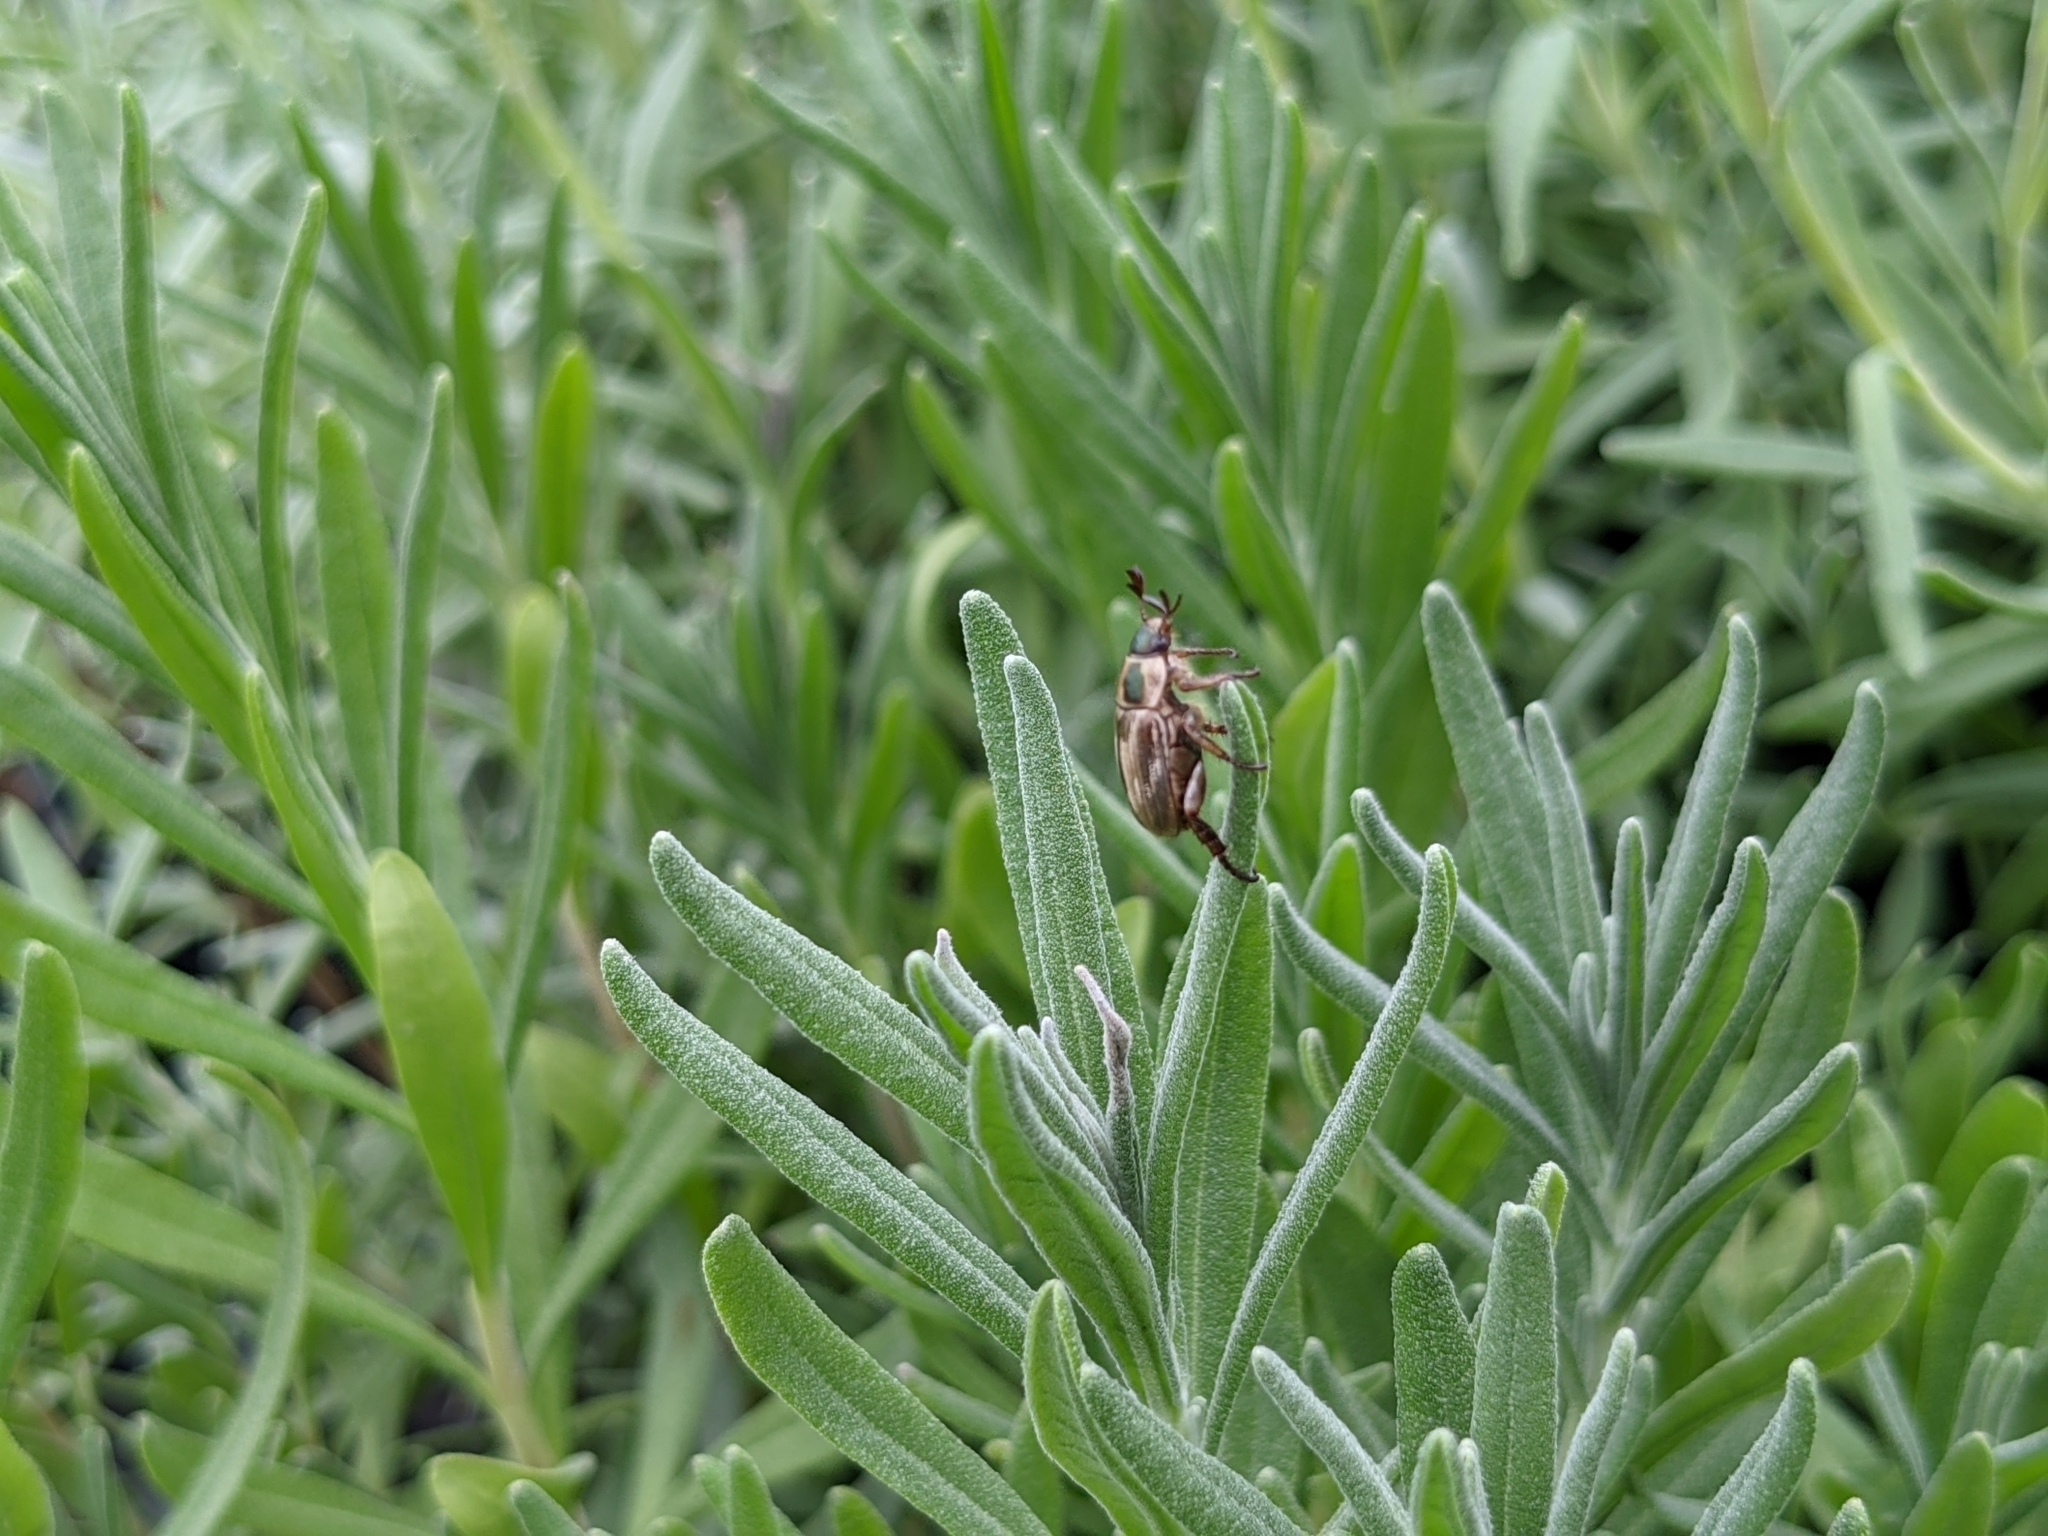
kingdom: Animalia
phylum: Arthropoda
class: Insecta
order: Coleoptera
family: Scarabaeidae
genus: Exomala
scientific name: Exomala orientalis
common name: Oriental beetle
